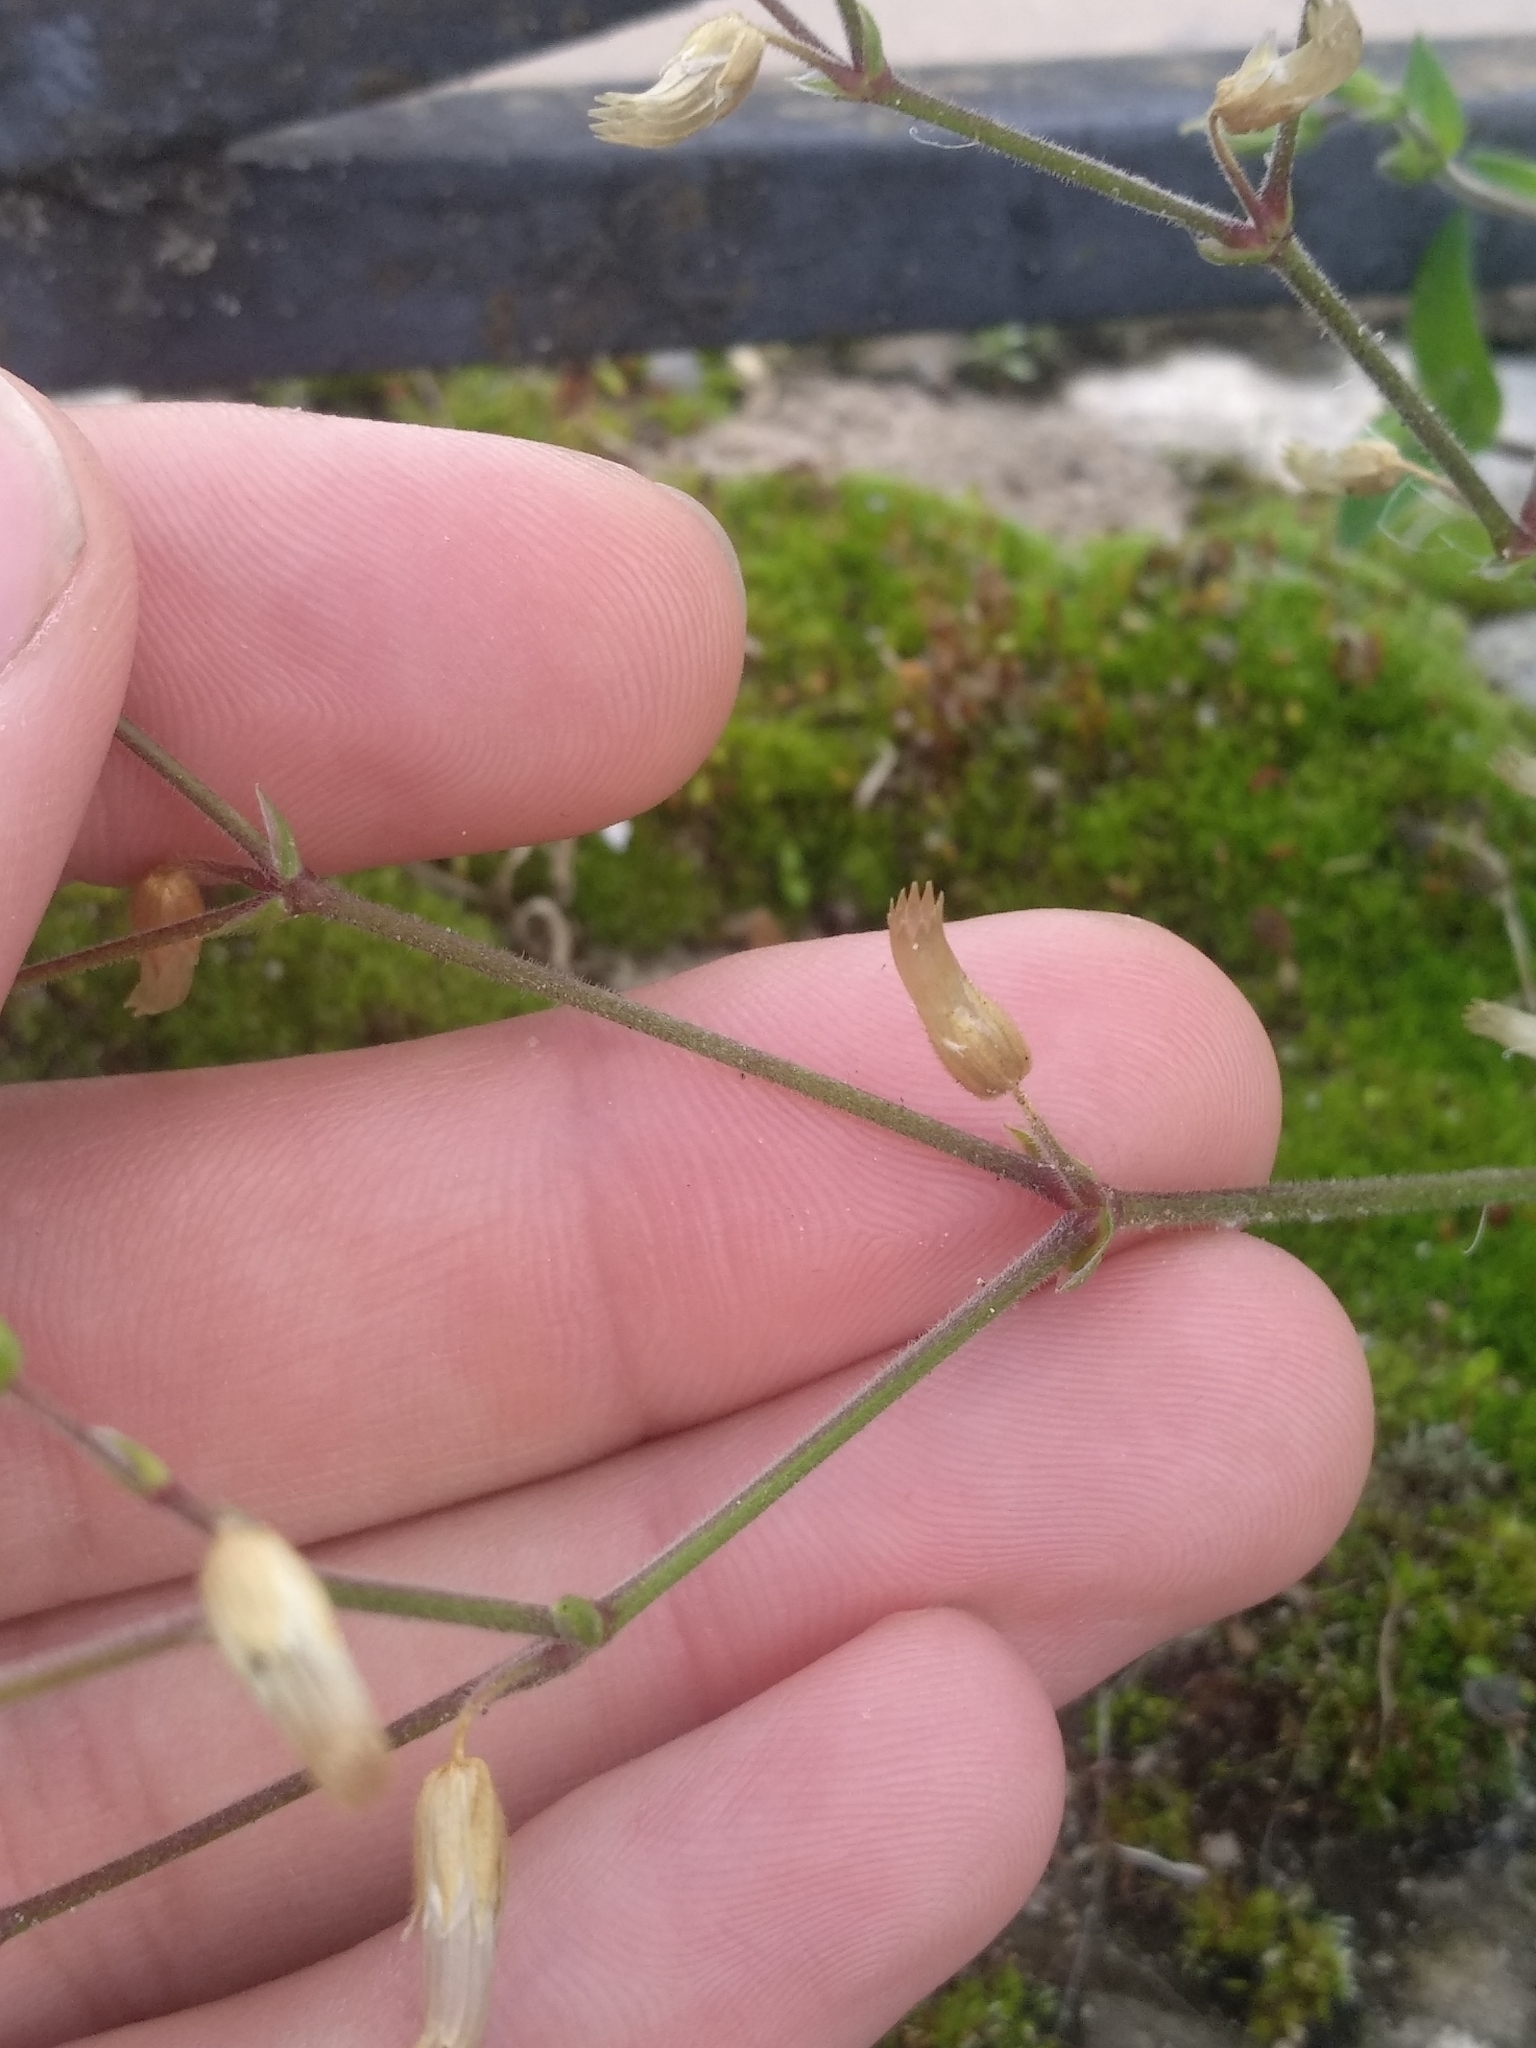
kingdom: Plantae
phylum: Tracheophyta
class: Magnoliopsida
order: Caryophyllales
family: Caryophyllaceae
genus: Cerastium
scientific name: Cerastium holosteoides
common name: Big chickweed
